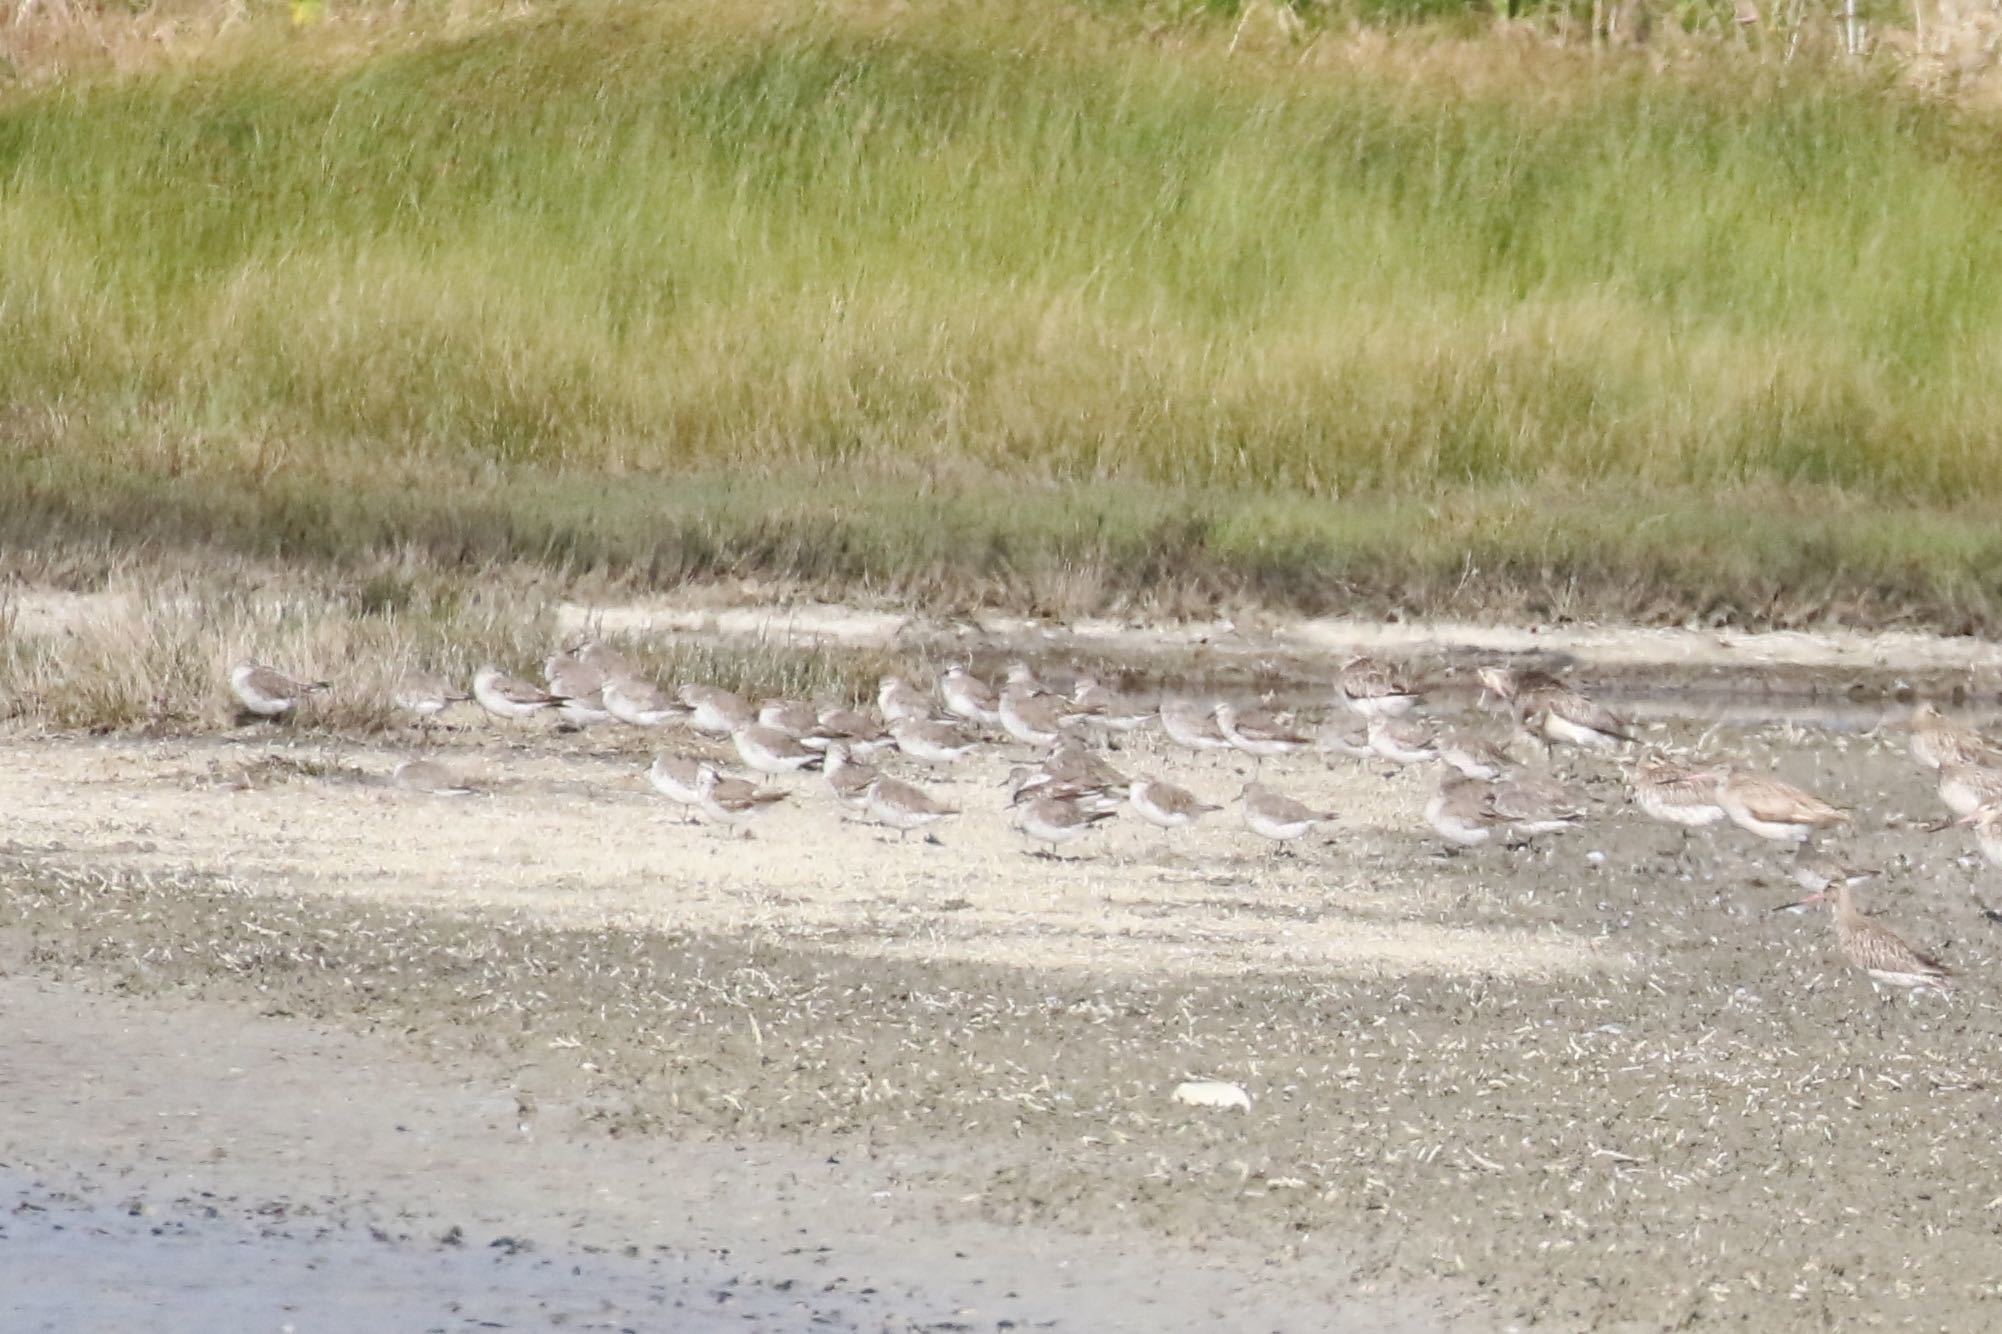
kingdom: Animalia
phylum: Chordata
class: Aves
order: Charadriiformes
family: Scolopacidae
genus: Calidris
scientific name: Calidris canutus
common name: Red knot
